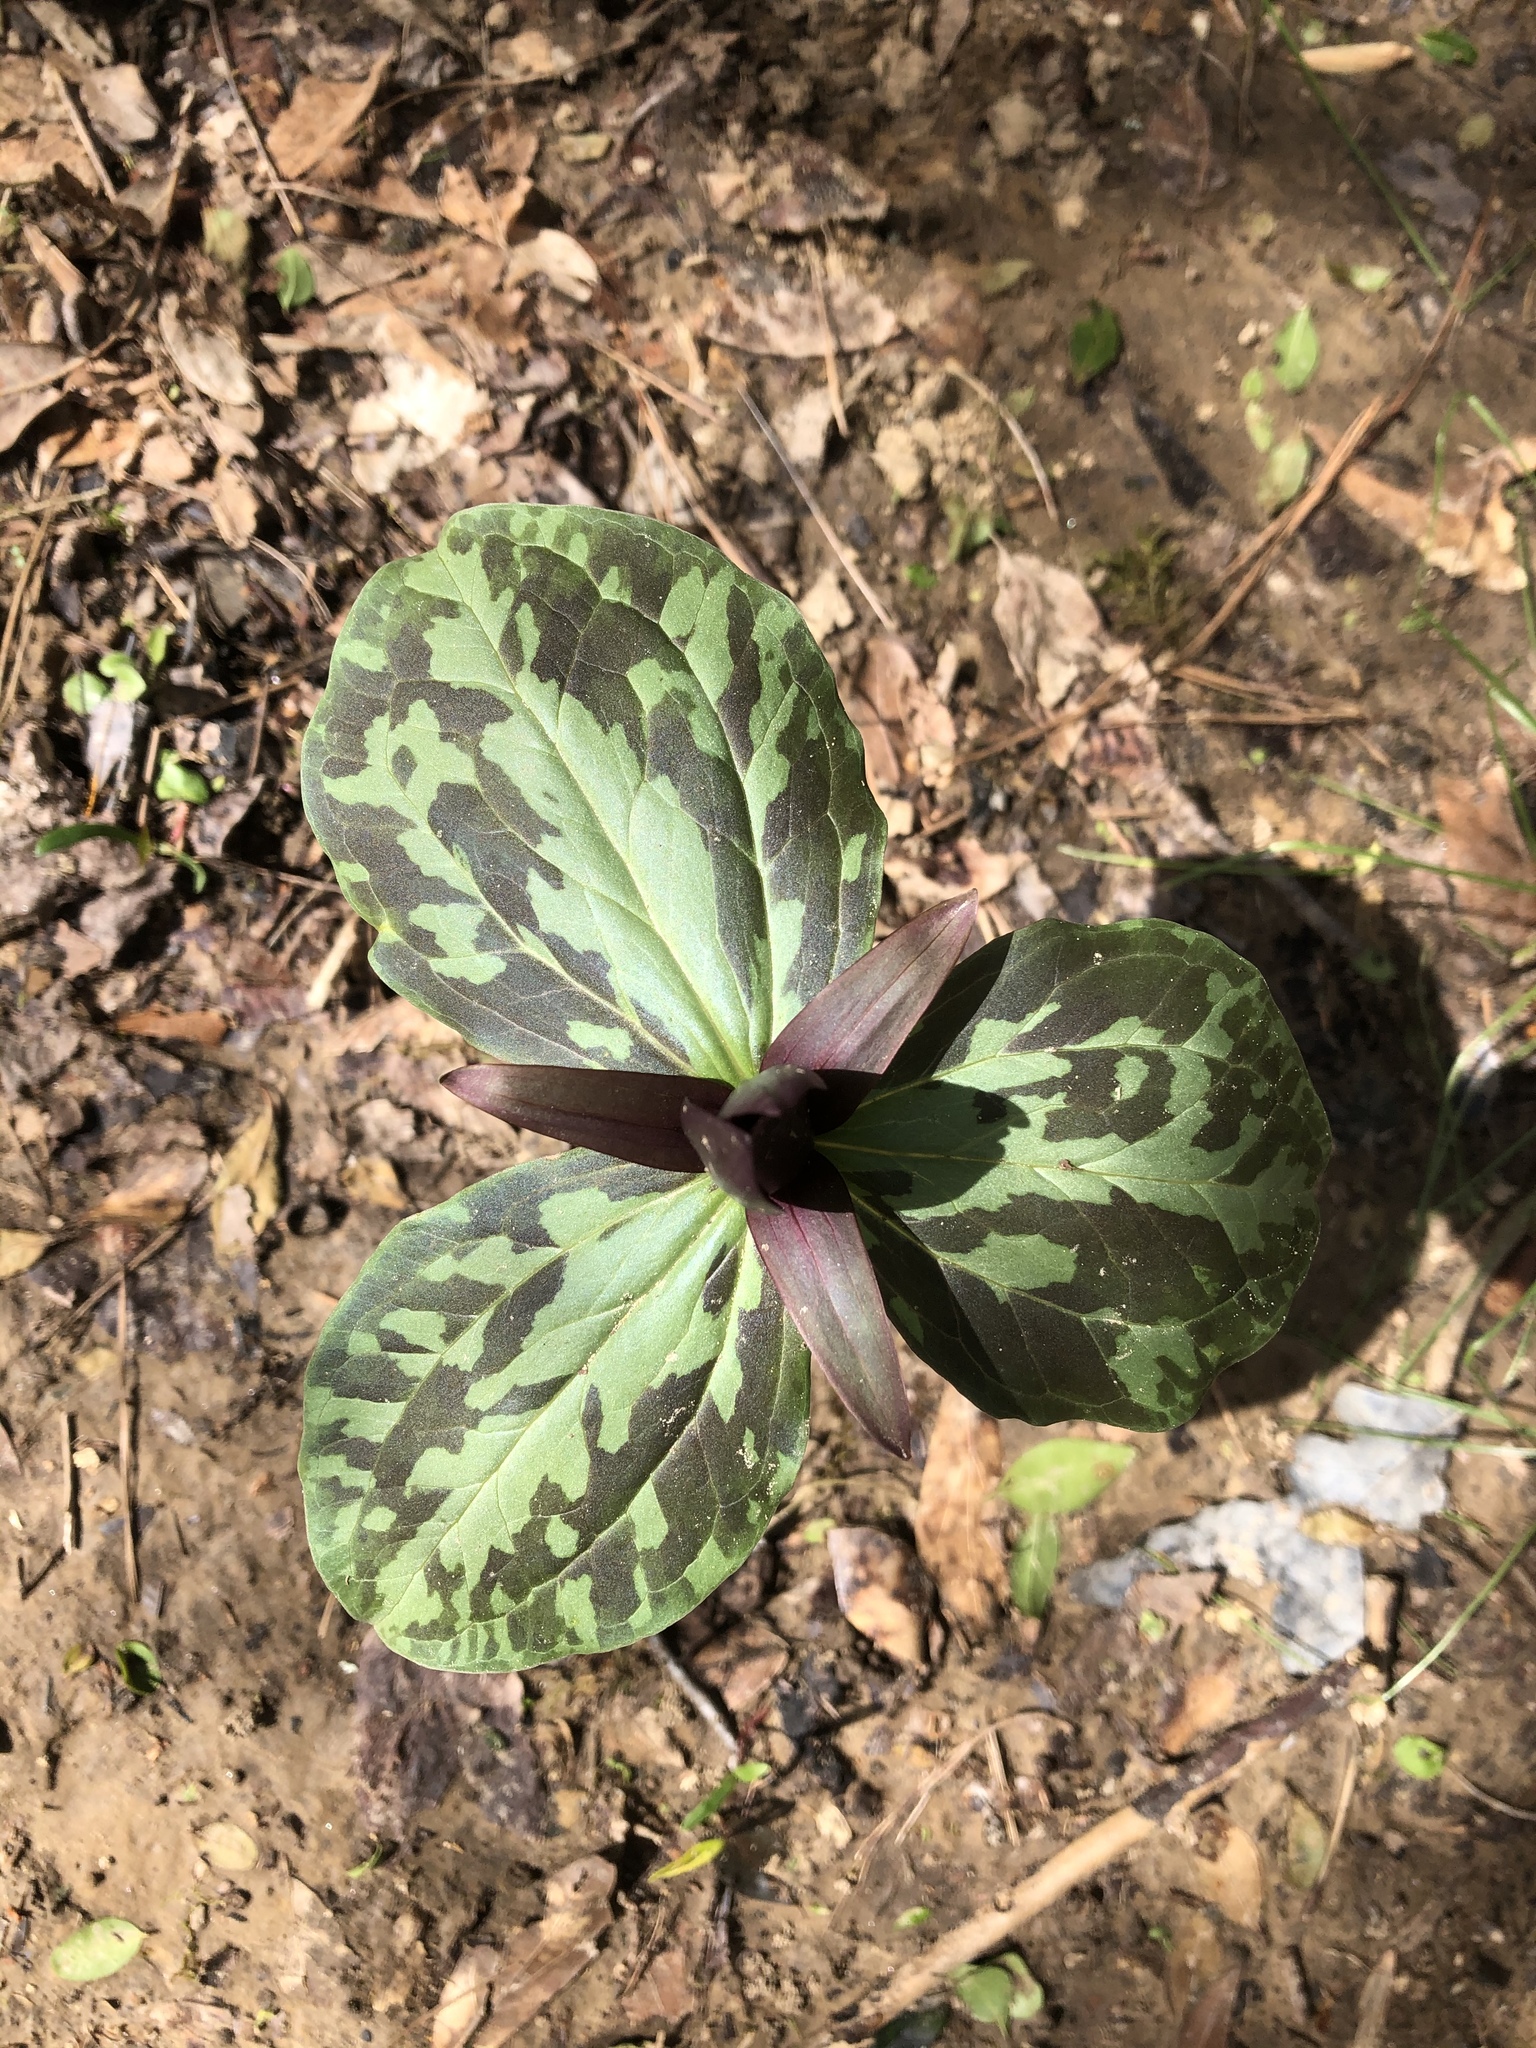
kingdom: Plantae
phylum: Tracheophyta
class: Liliopsida
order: Liliales
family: Melanthiaceae
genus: Trillium
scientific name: Trillium cuneatum
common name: Cuneate trillium
